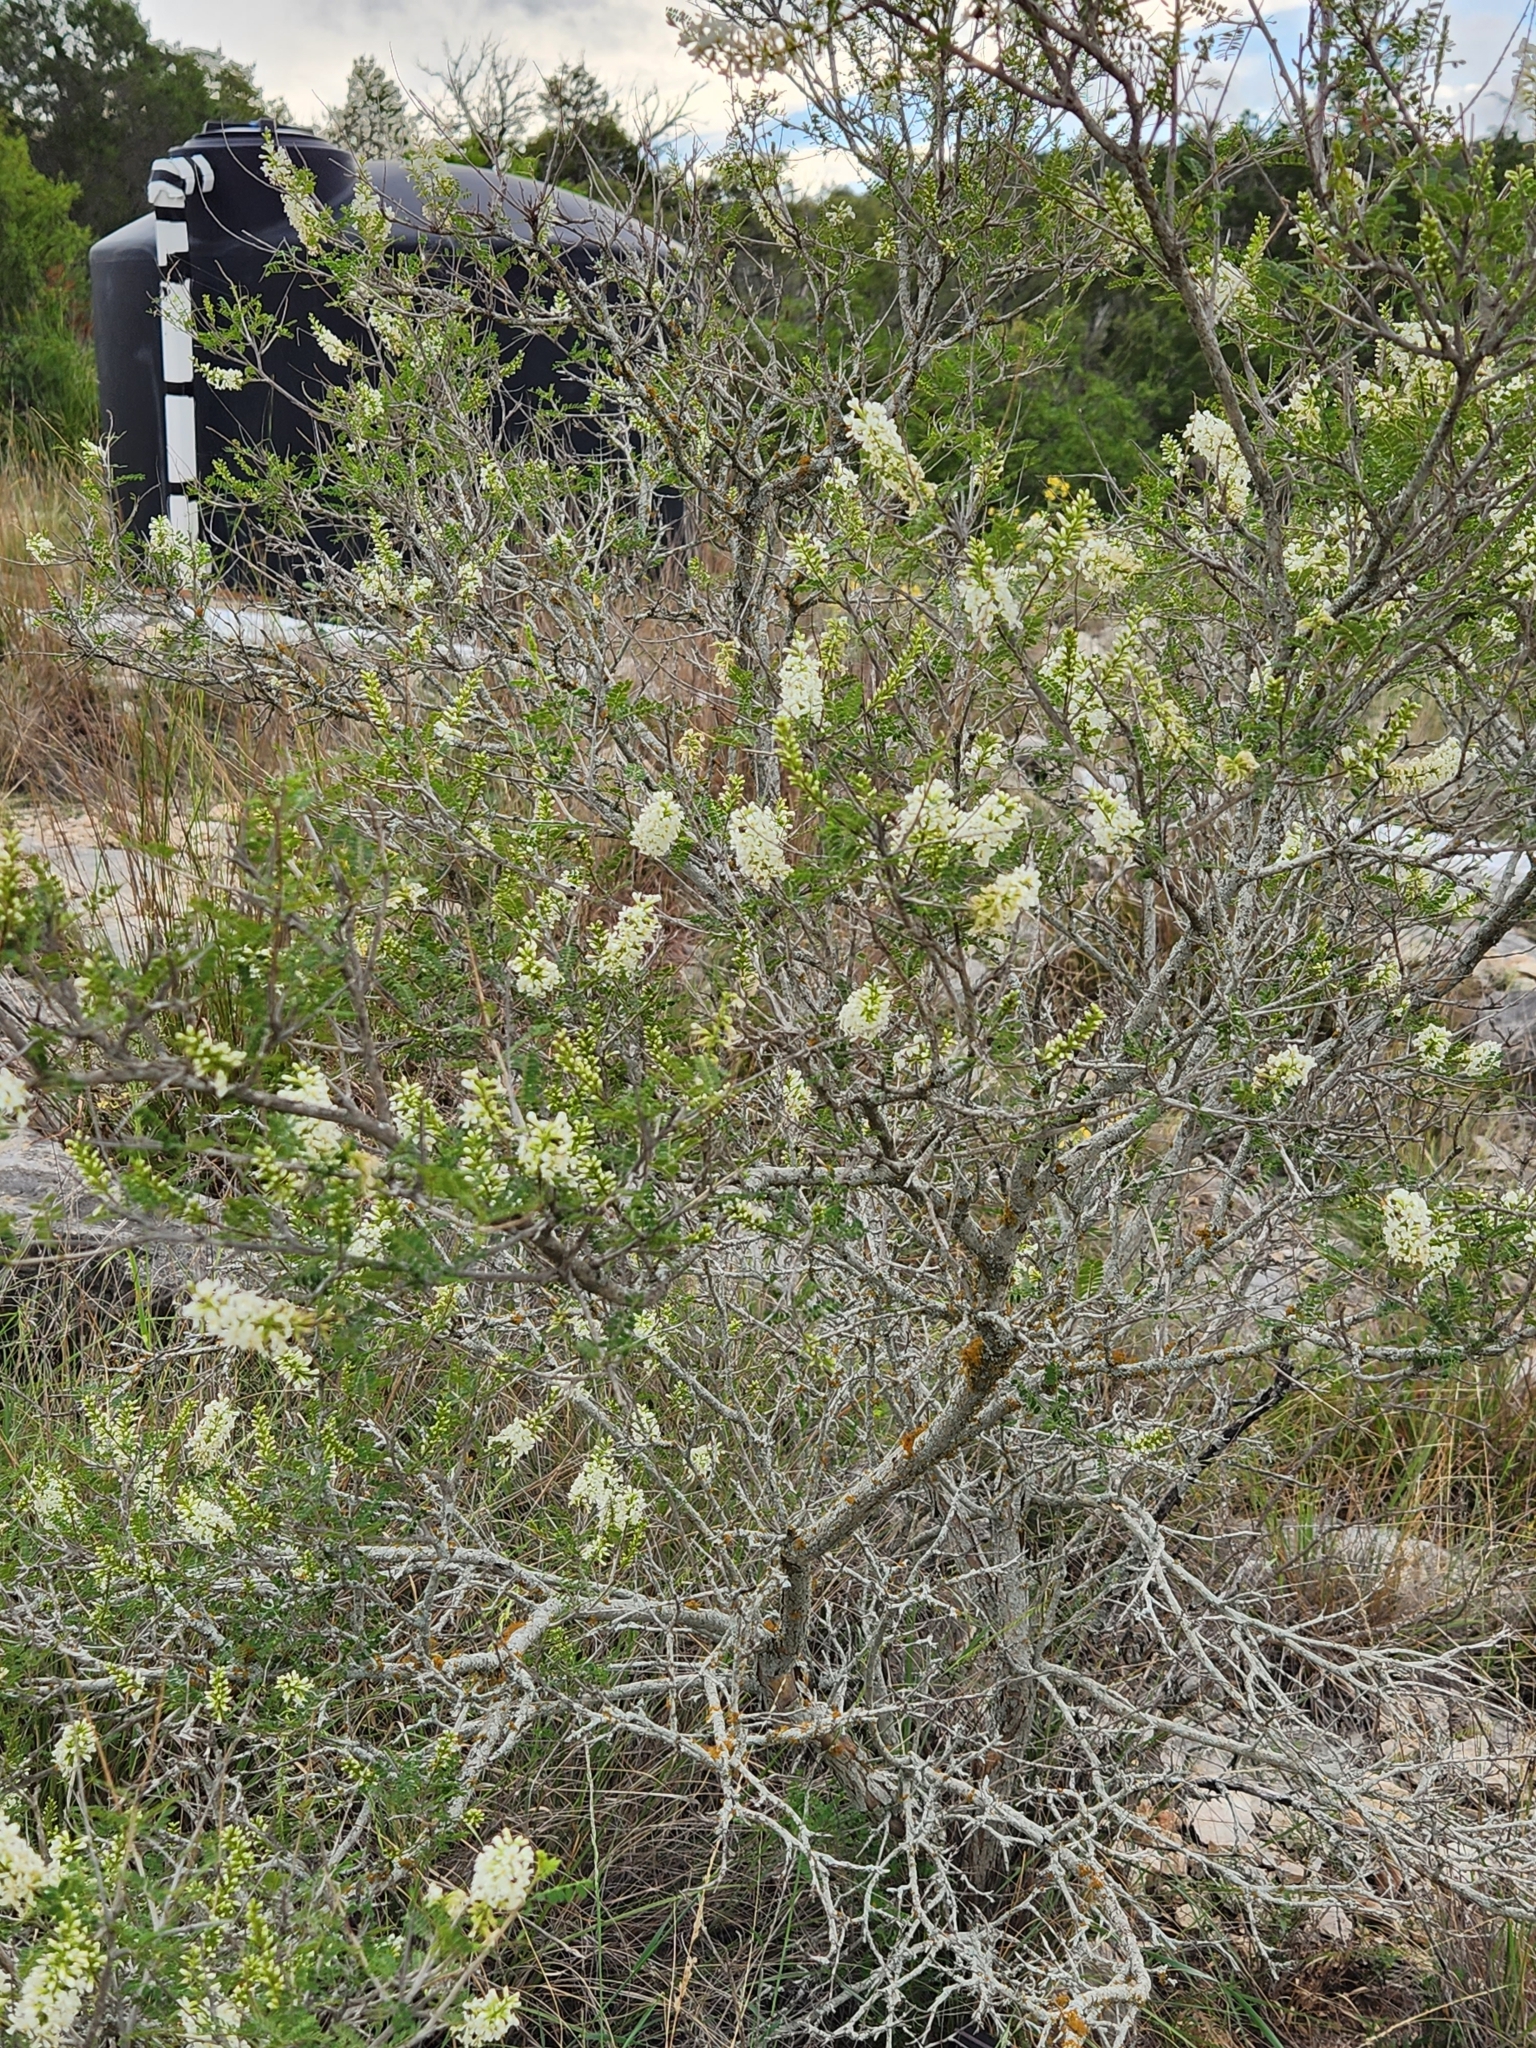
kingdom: Plantae
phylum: Tracheophyta
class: Magnoliopsida
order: Fabales
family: Fabaceae
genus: Eysenhardtia
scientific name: Eysenhardtia texana
